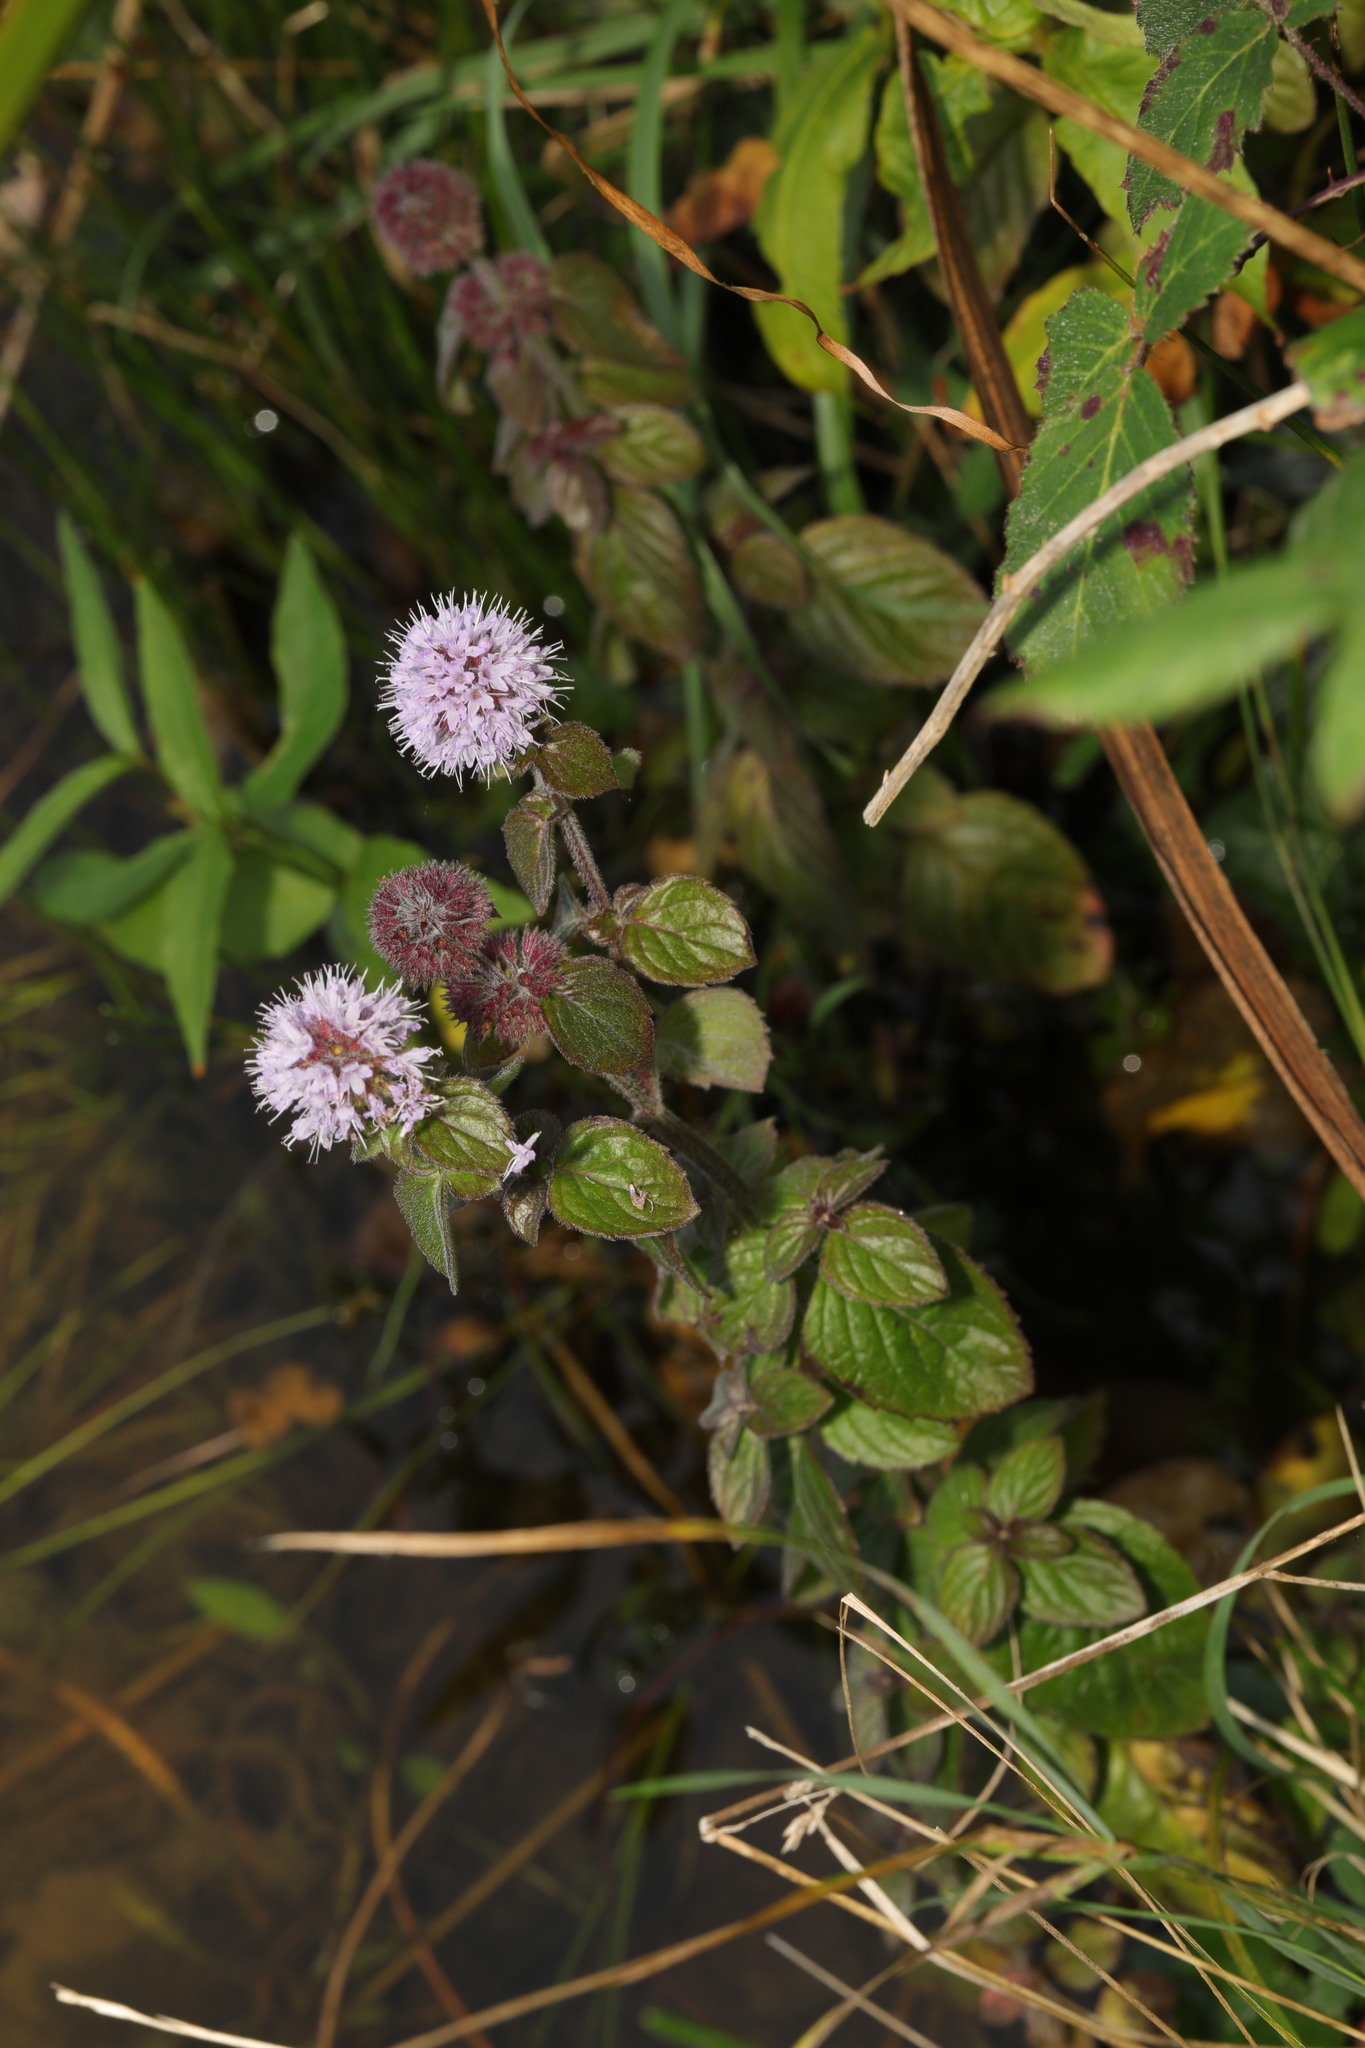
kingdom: Plantae
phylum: Tracheophyta
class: Magnoliopsida
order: Lamiales
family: Lamiaceae
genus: Mentha
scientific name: Mentha aquatica
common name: Water mint
